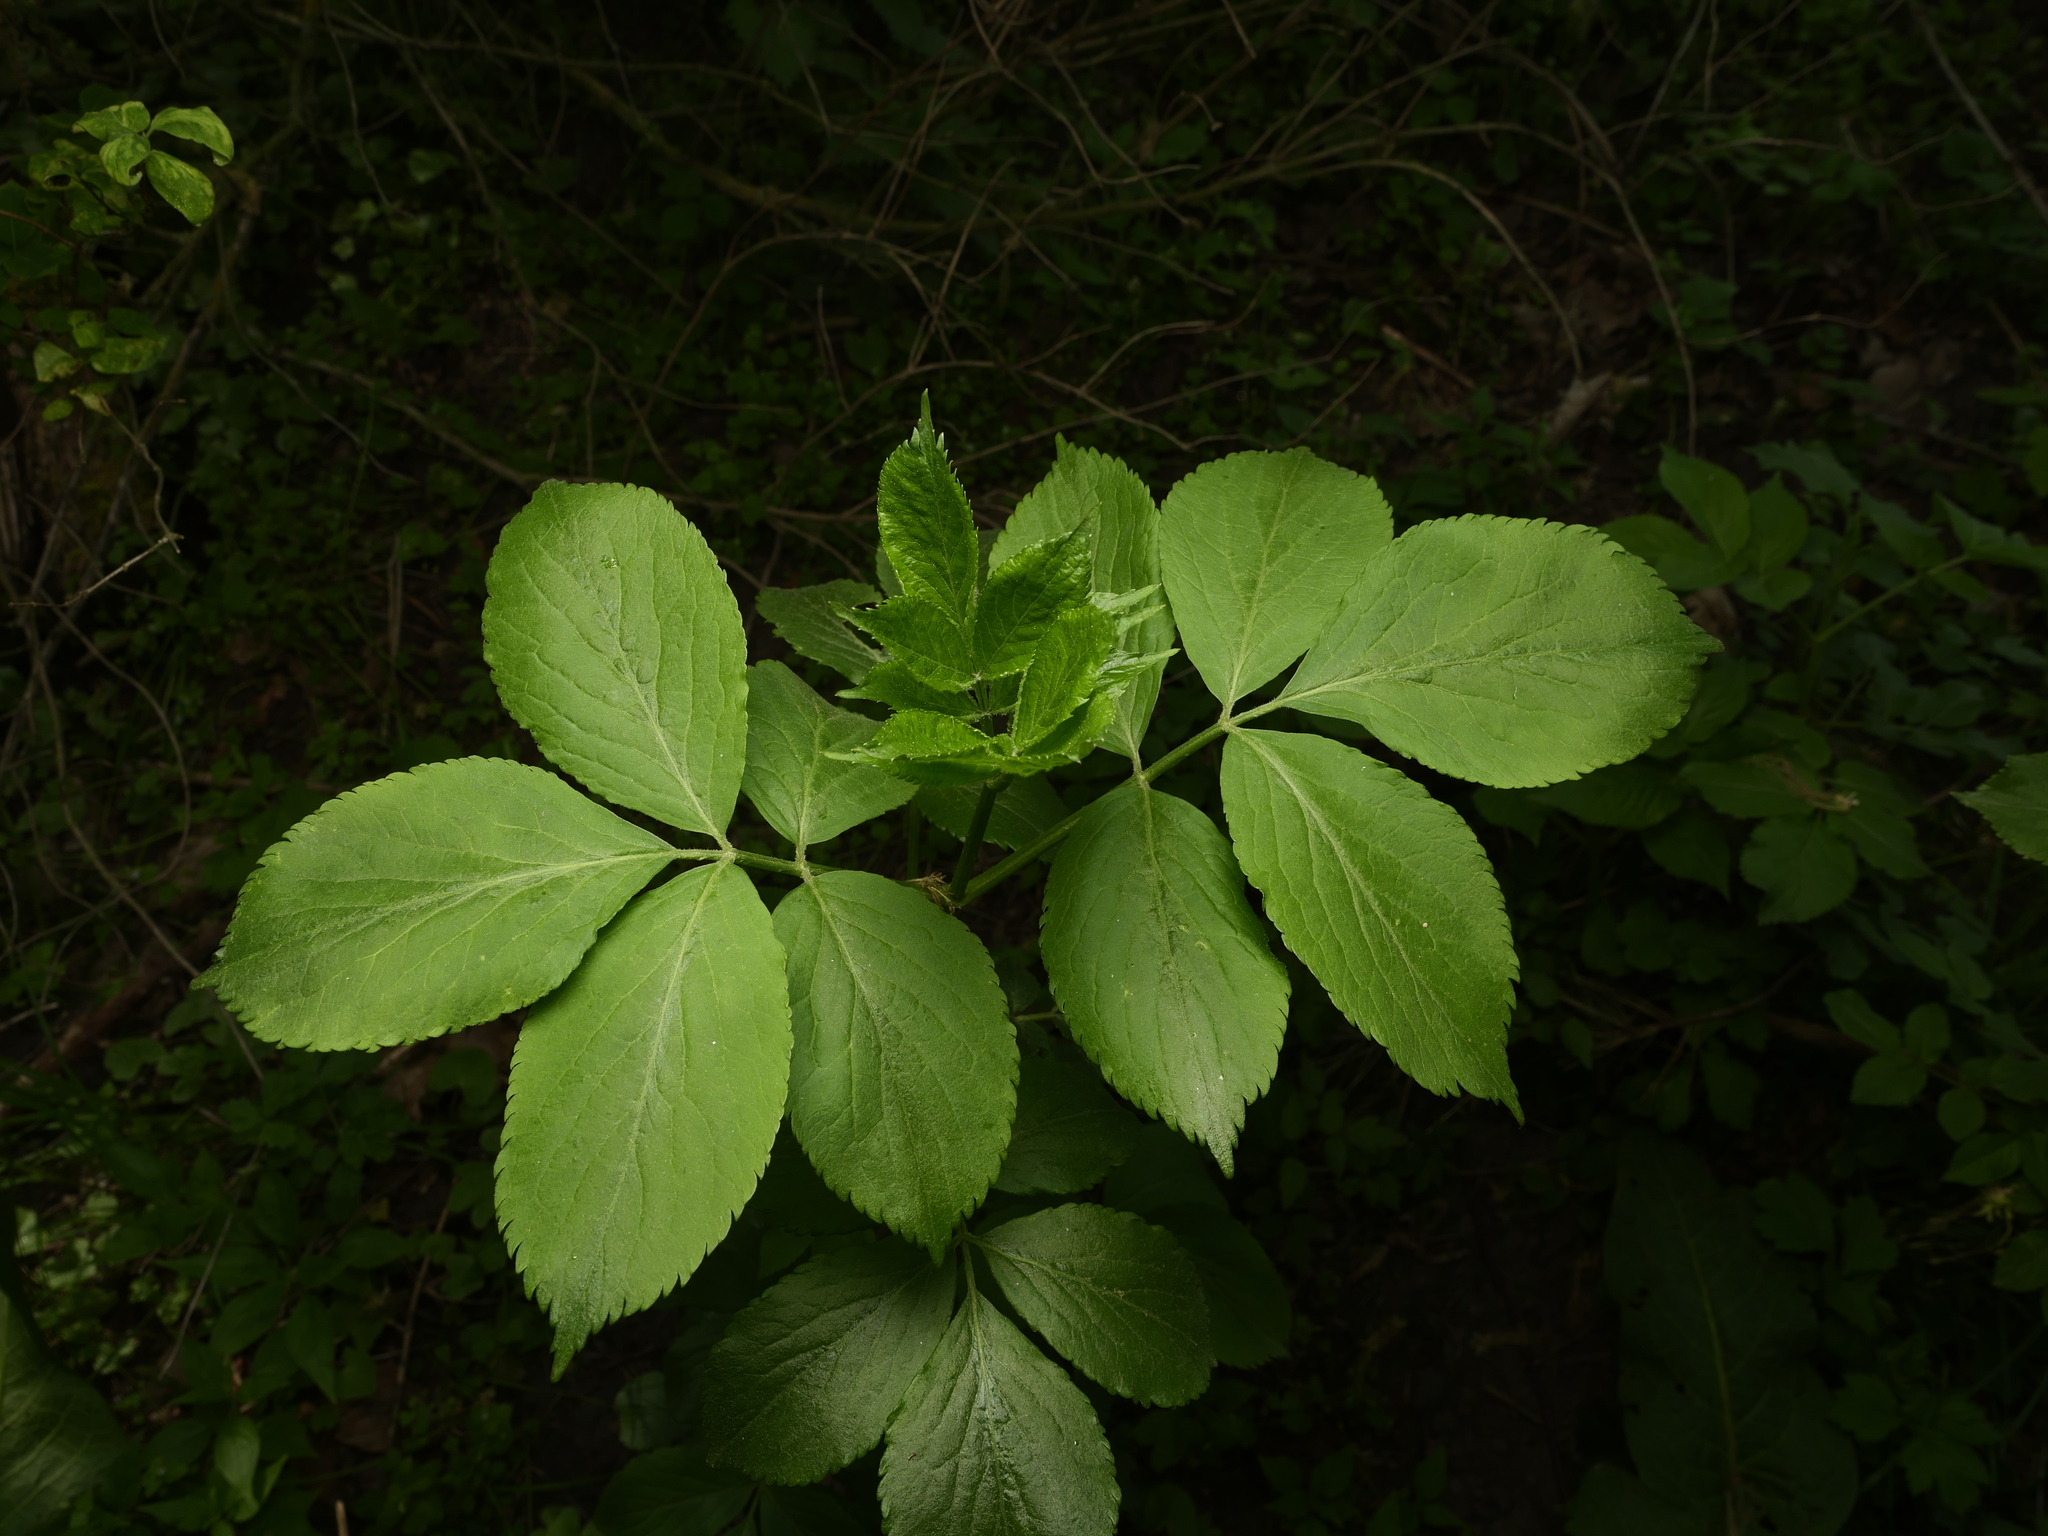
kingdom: Plantae
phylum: Tracheophyta
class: Magnoliopsida
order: Dipsacales
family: Viburnaceae
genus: Sambucus
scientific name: Sambucus nigra
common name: Elder
